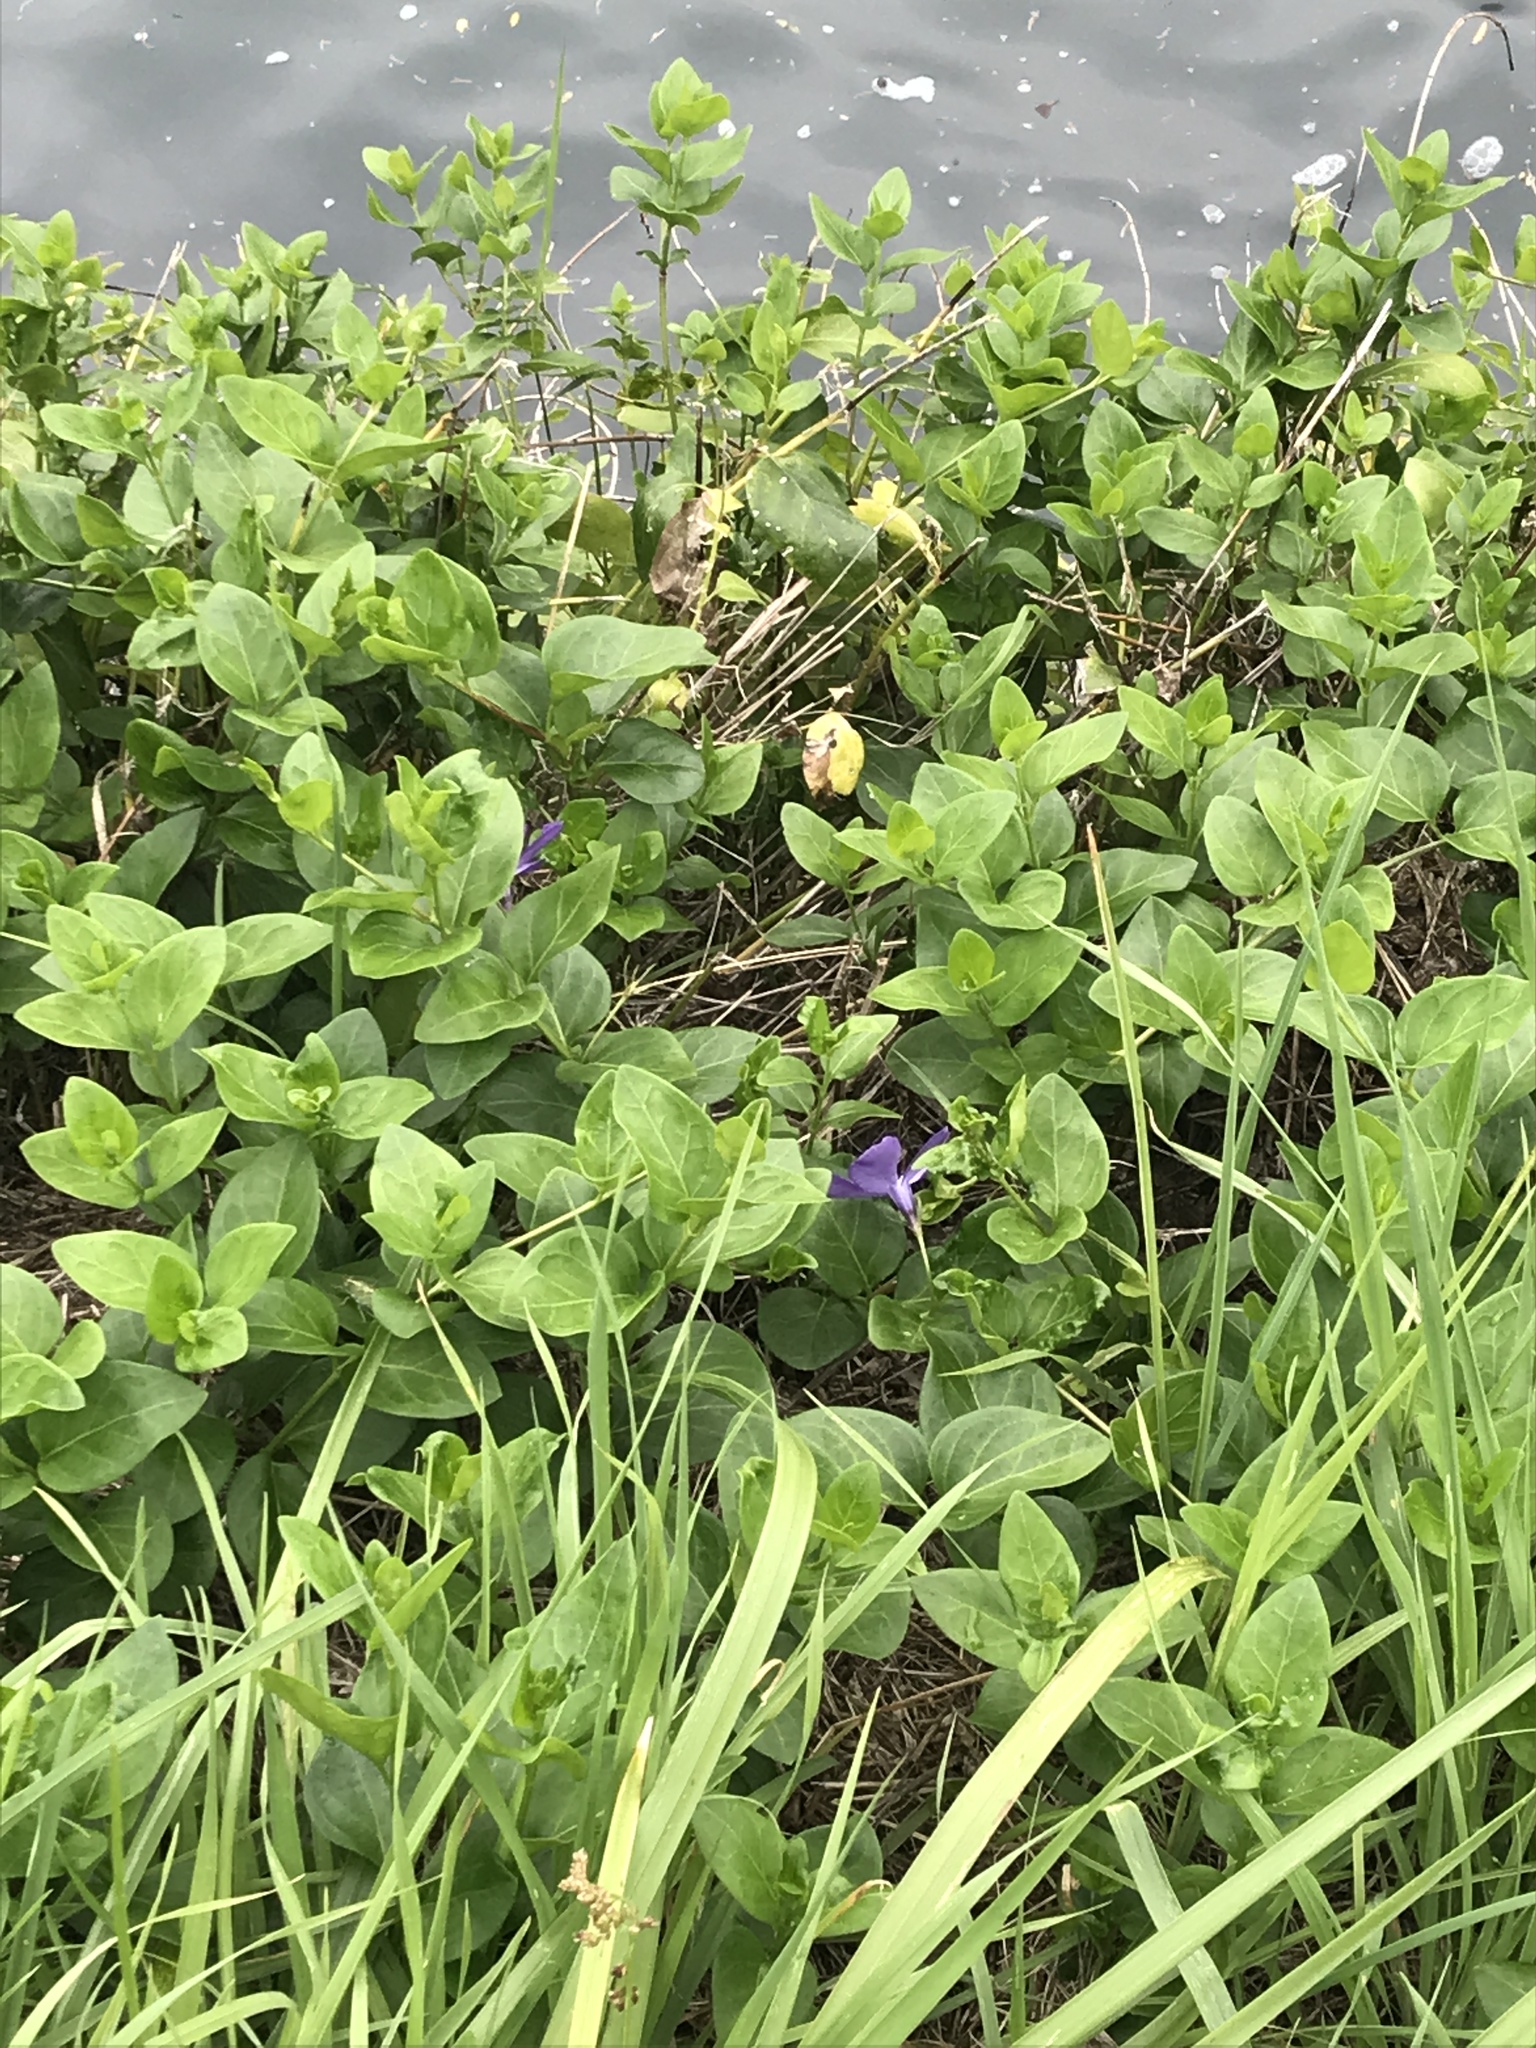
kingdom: Plantae
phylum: Tracheophyta
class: Magnoliopsida
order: Gentianales
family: Apocynaceae
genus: Vinca
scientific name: Vinca major
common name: Greater periwinkle
